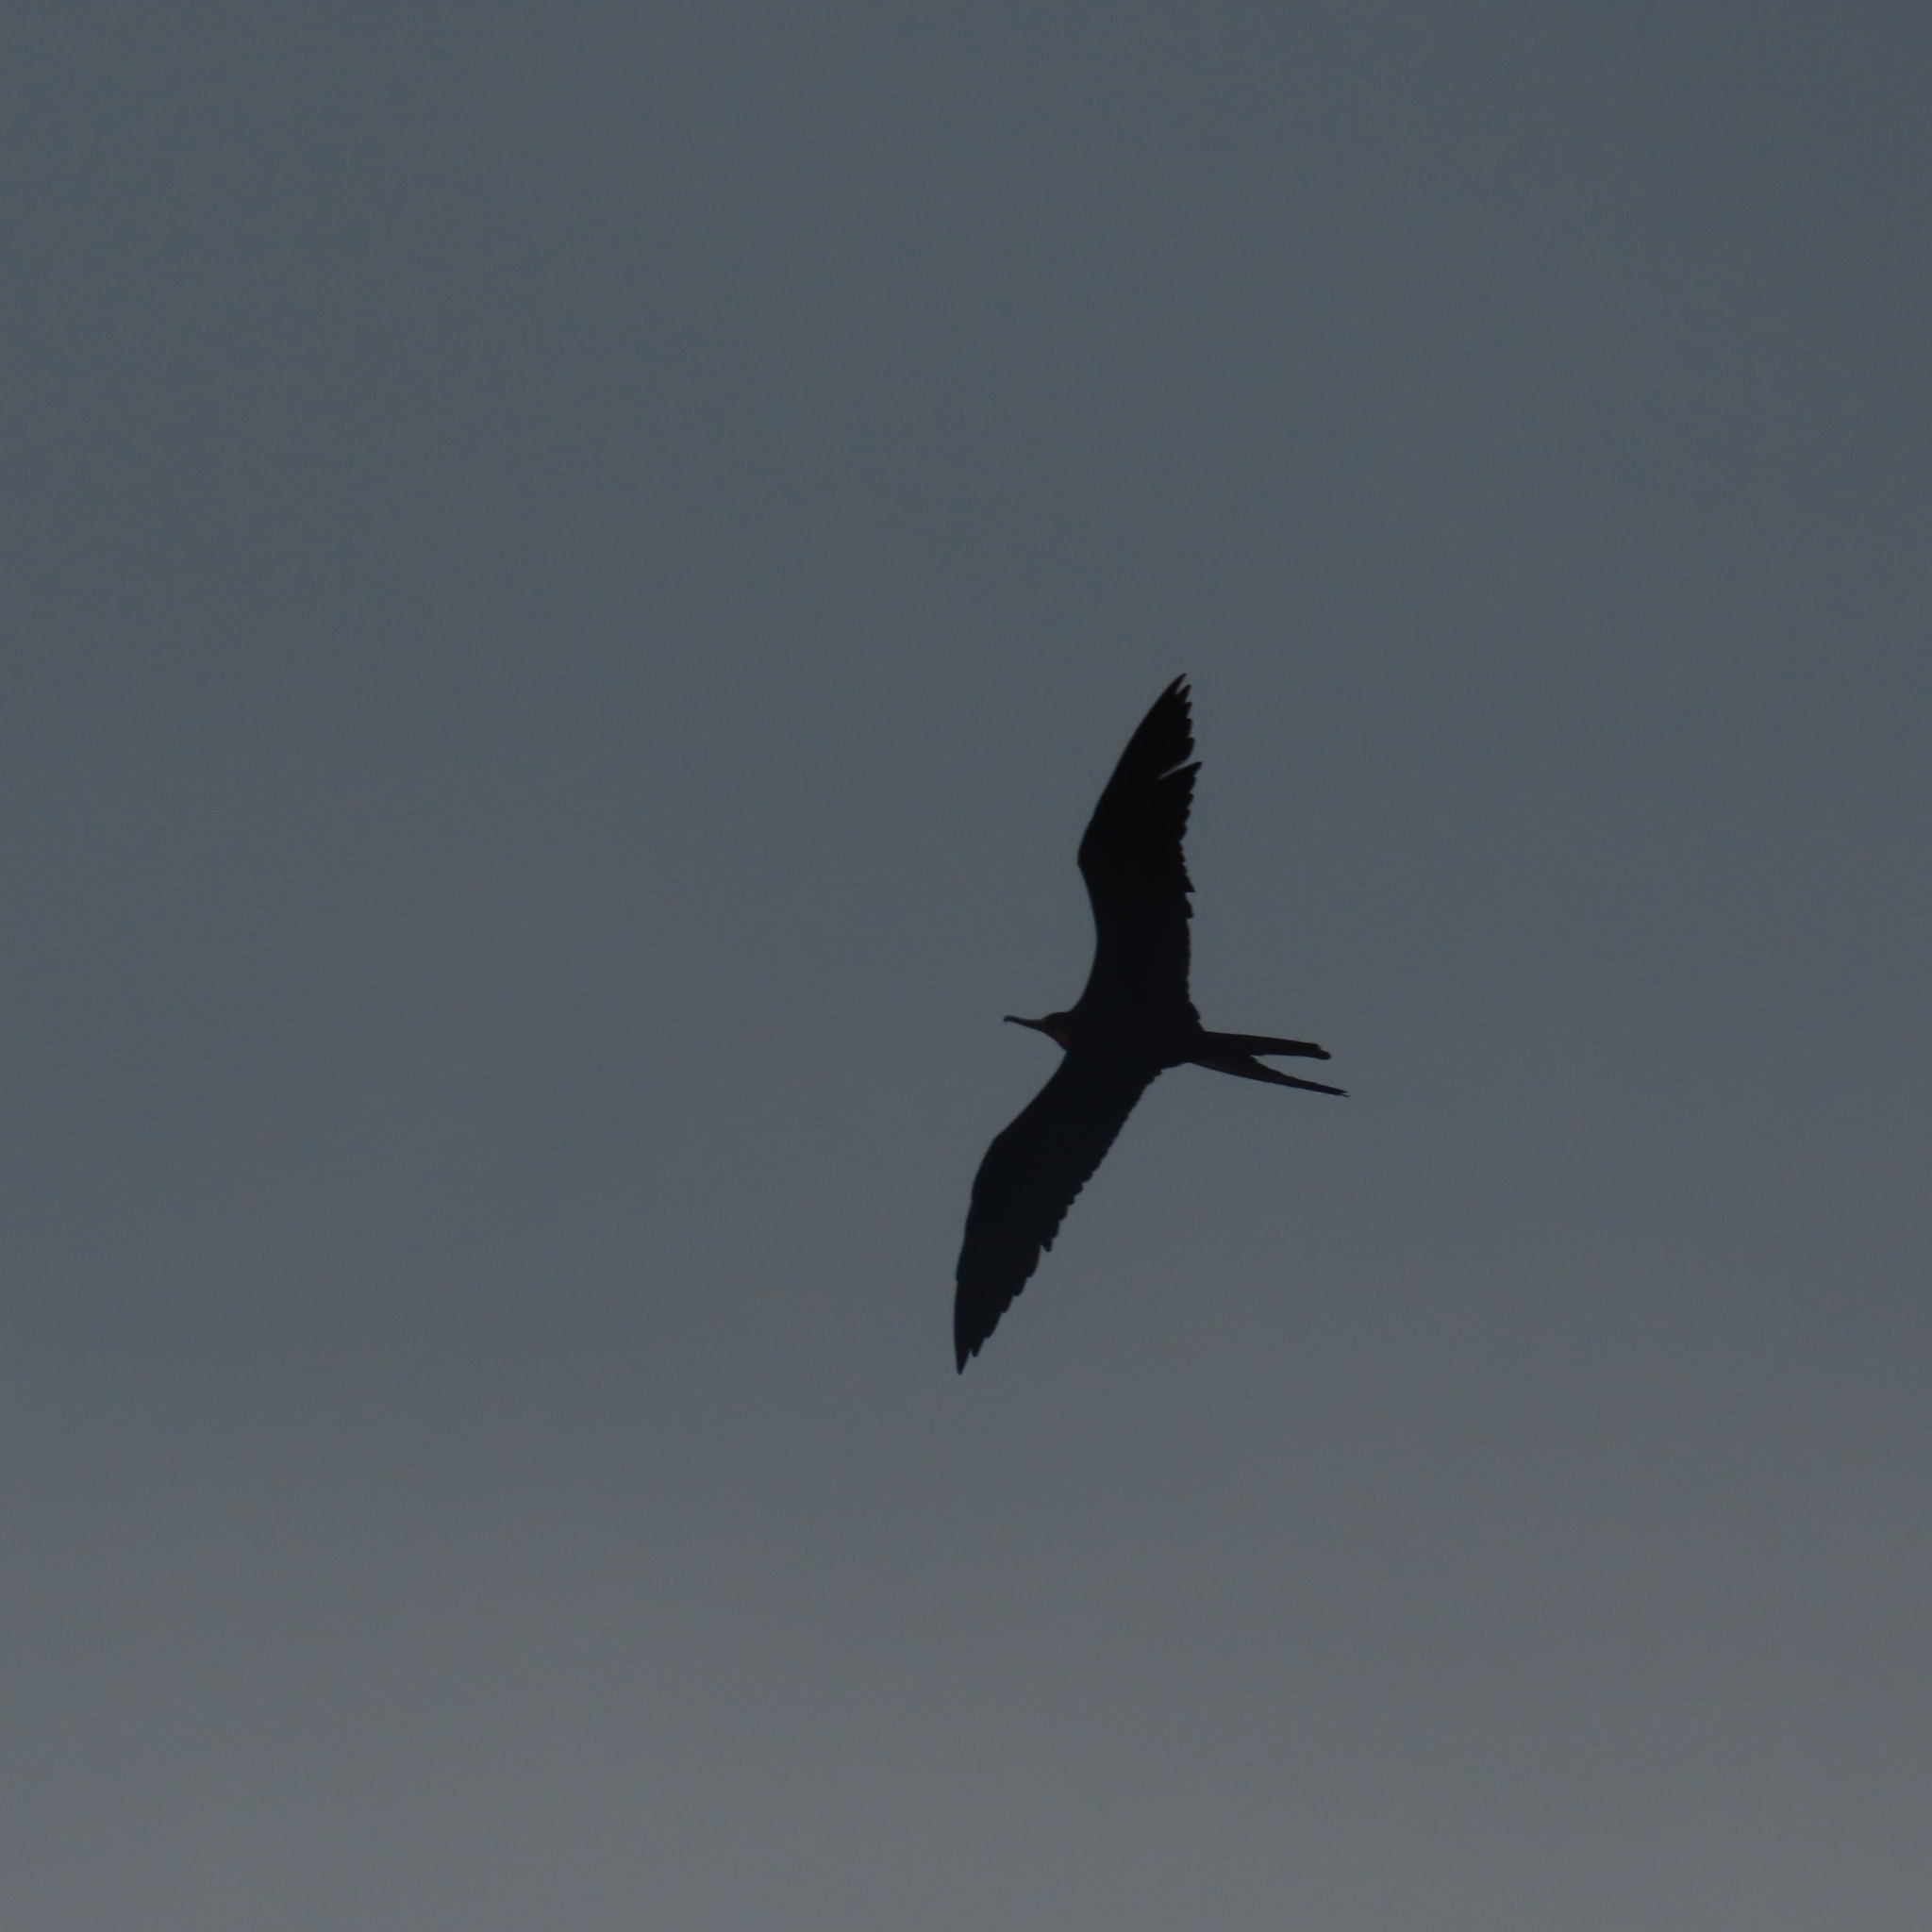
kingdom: Animalia
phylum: Chordata
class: Aves
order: Suliformes
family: Fregatidae
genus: Fregata
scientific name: Fregata magnificens
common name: Magnificent frigatebird
